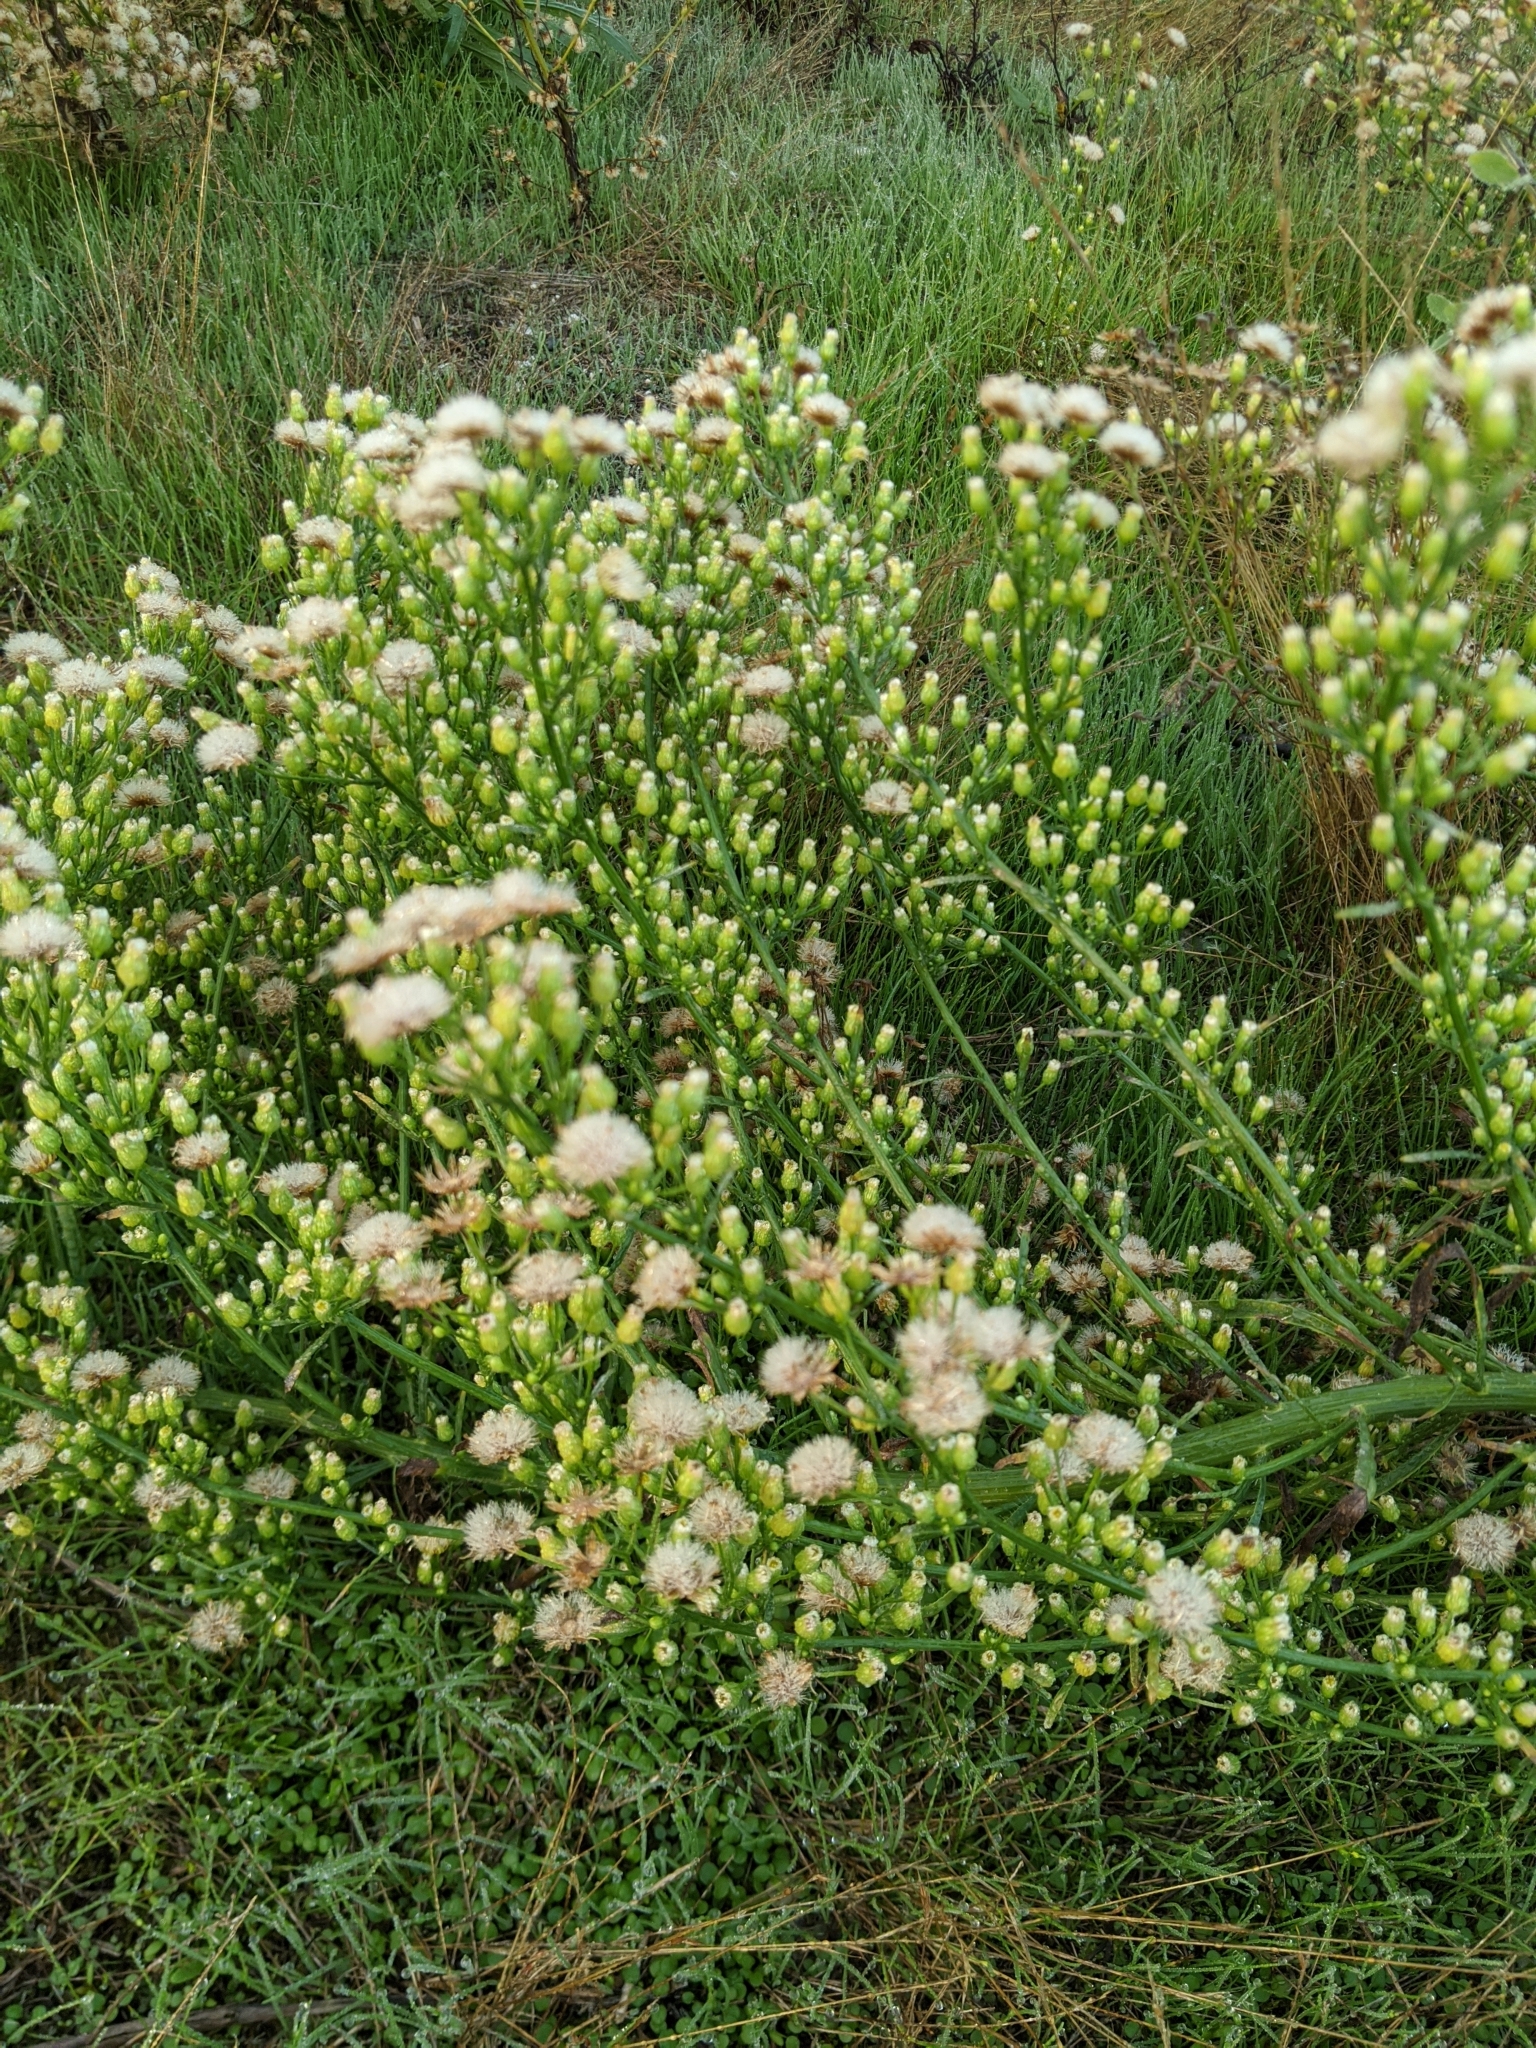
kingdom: Plantae
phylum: Tracheophyta
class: Magnoliopsida
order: Asterales
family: Asteraceae
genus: Erigeron
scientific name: Erigeron canadensis
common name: Canadian fleabane
